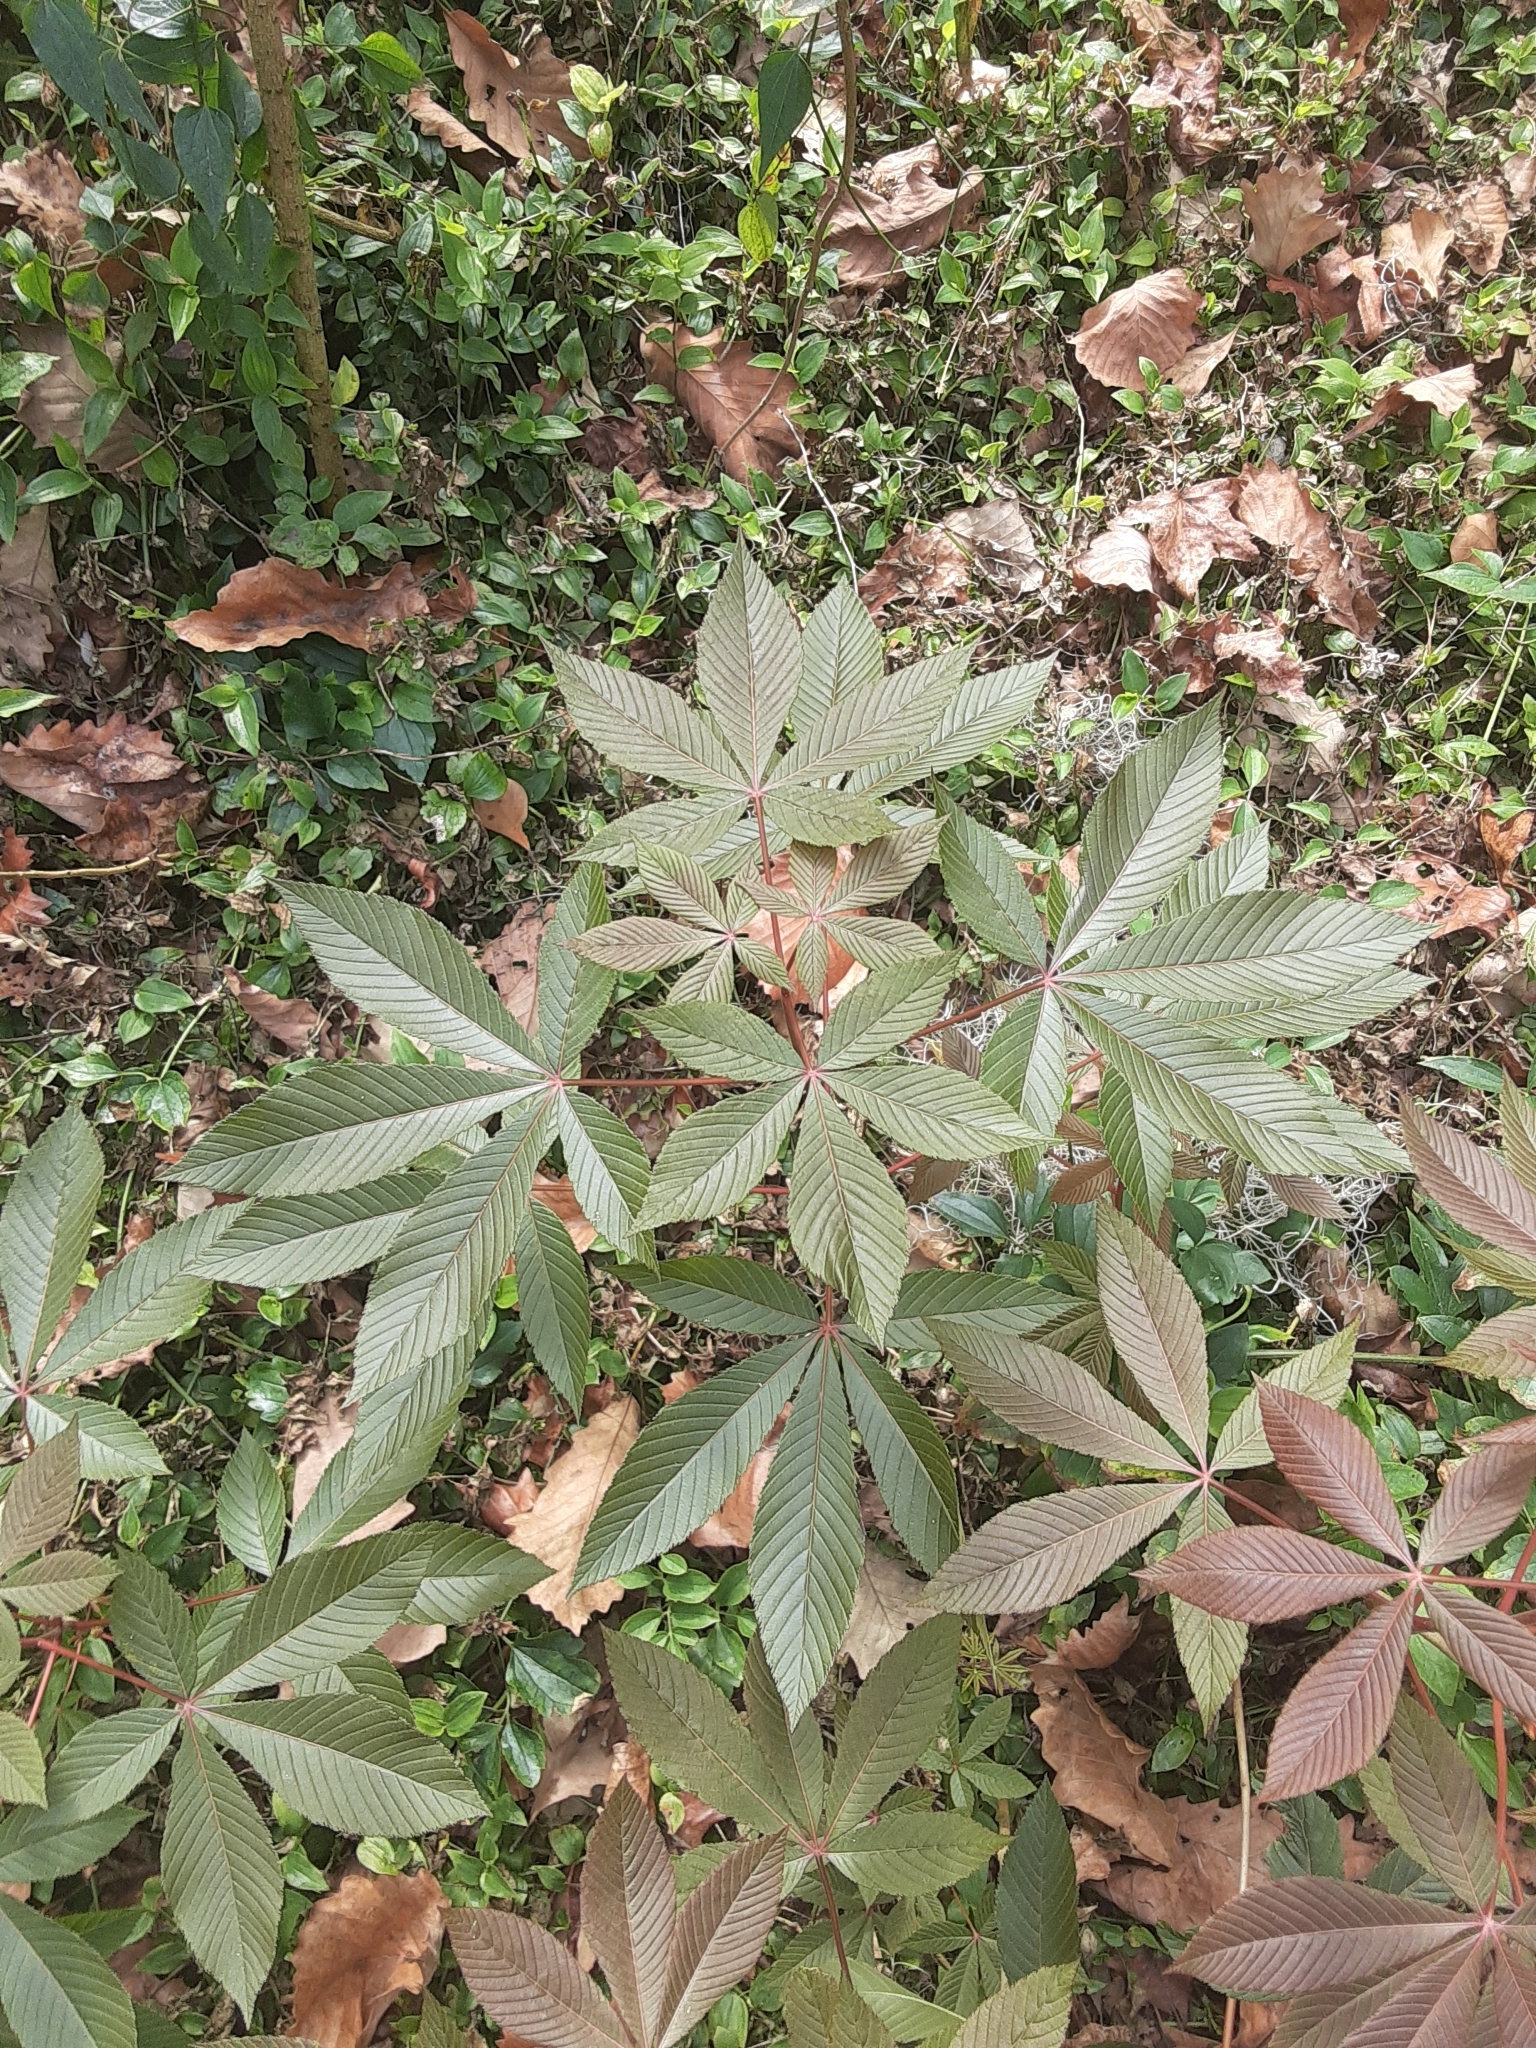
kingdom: Plantae
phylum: Tracheophyta
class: Magnoliopsida
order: Sapindales
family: Sapindaceae
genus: Aesculus
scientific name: Aesculus pavia
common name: Red buckeye
